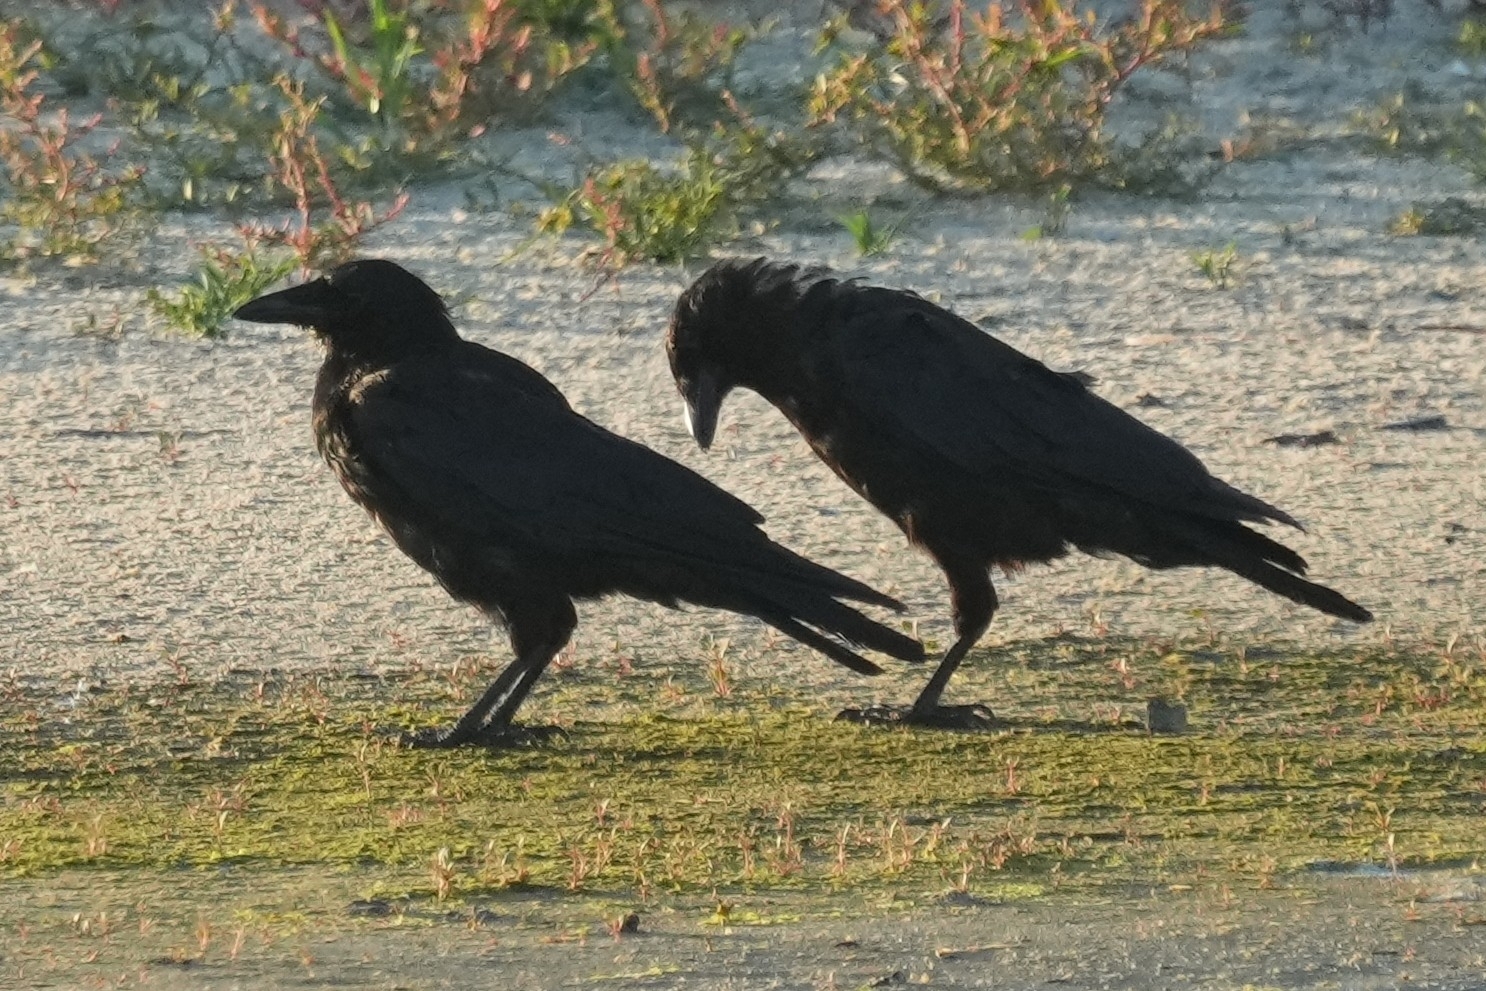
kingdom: Animalia
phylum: Chordata
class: Aves
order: Passeriformes
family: Corvidae
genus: Corvus
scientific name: Corvus
